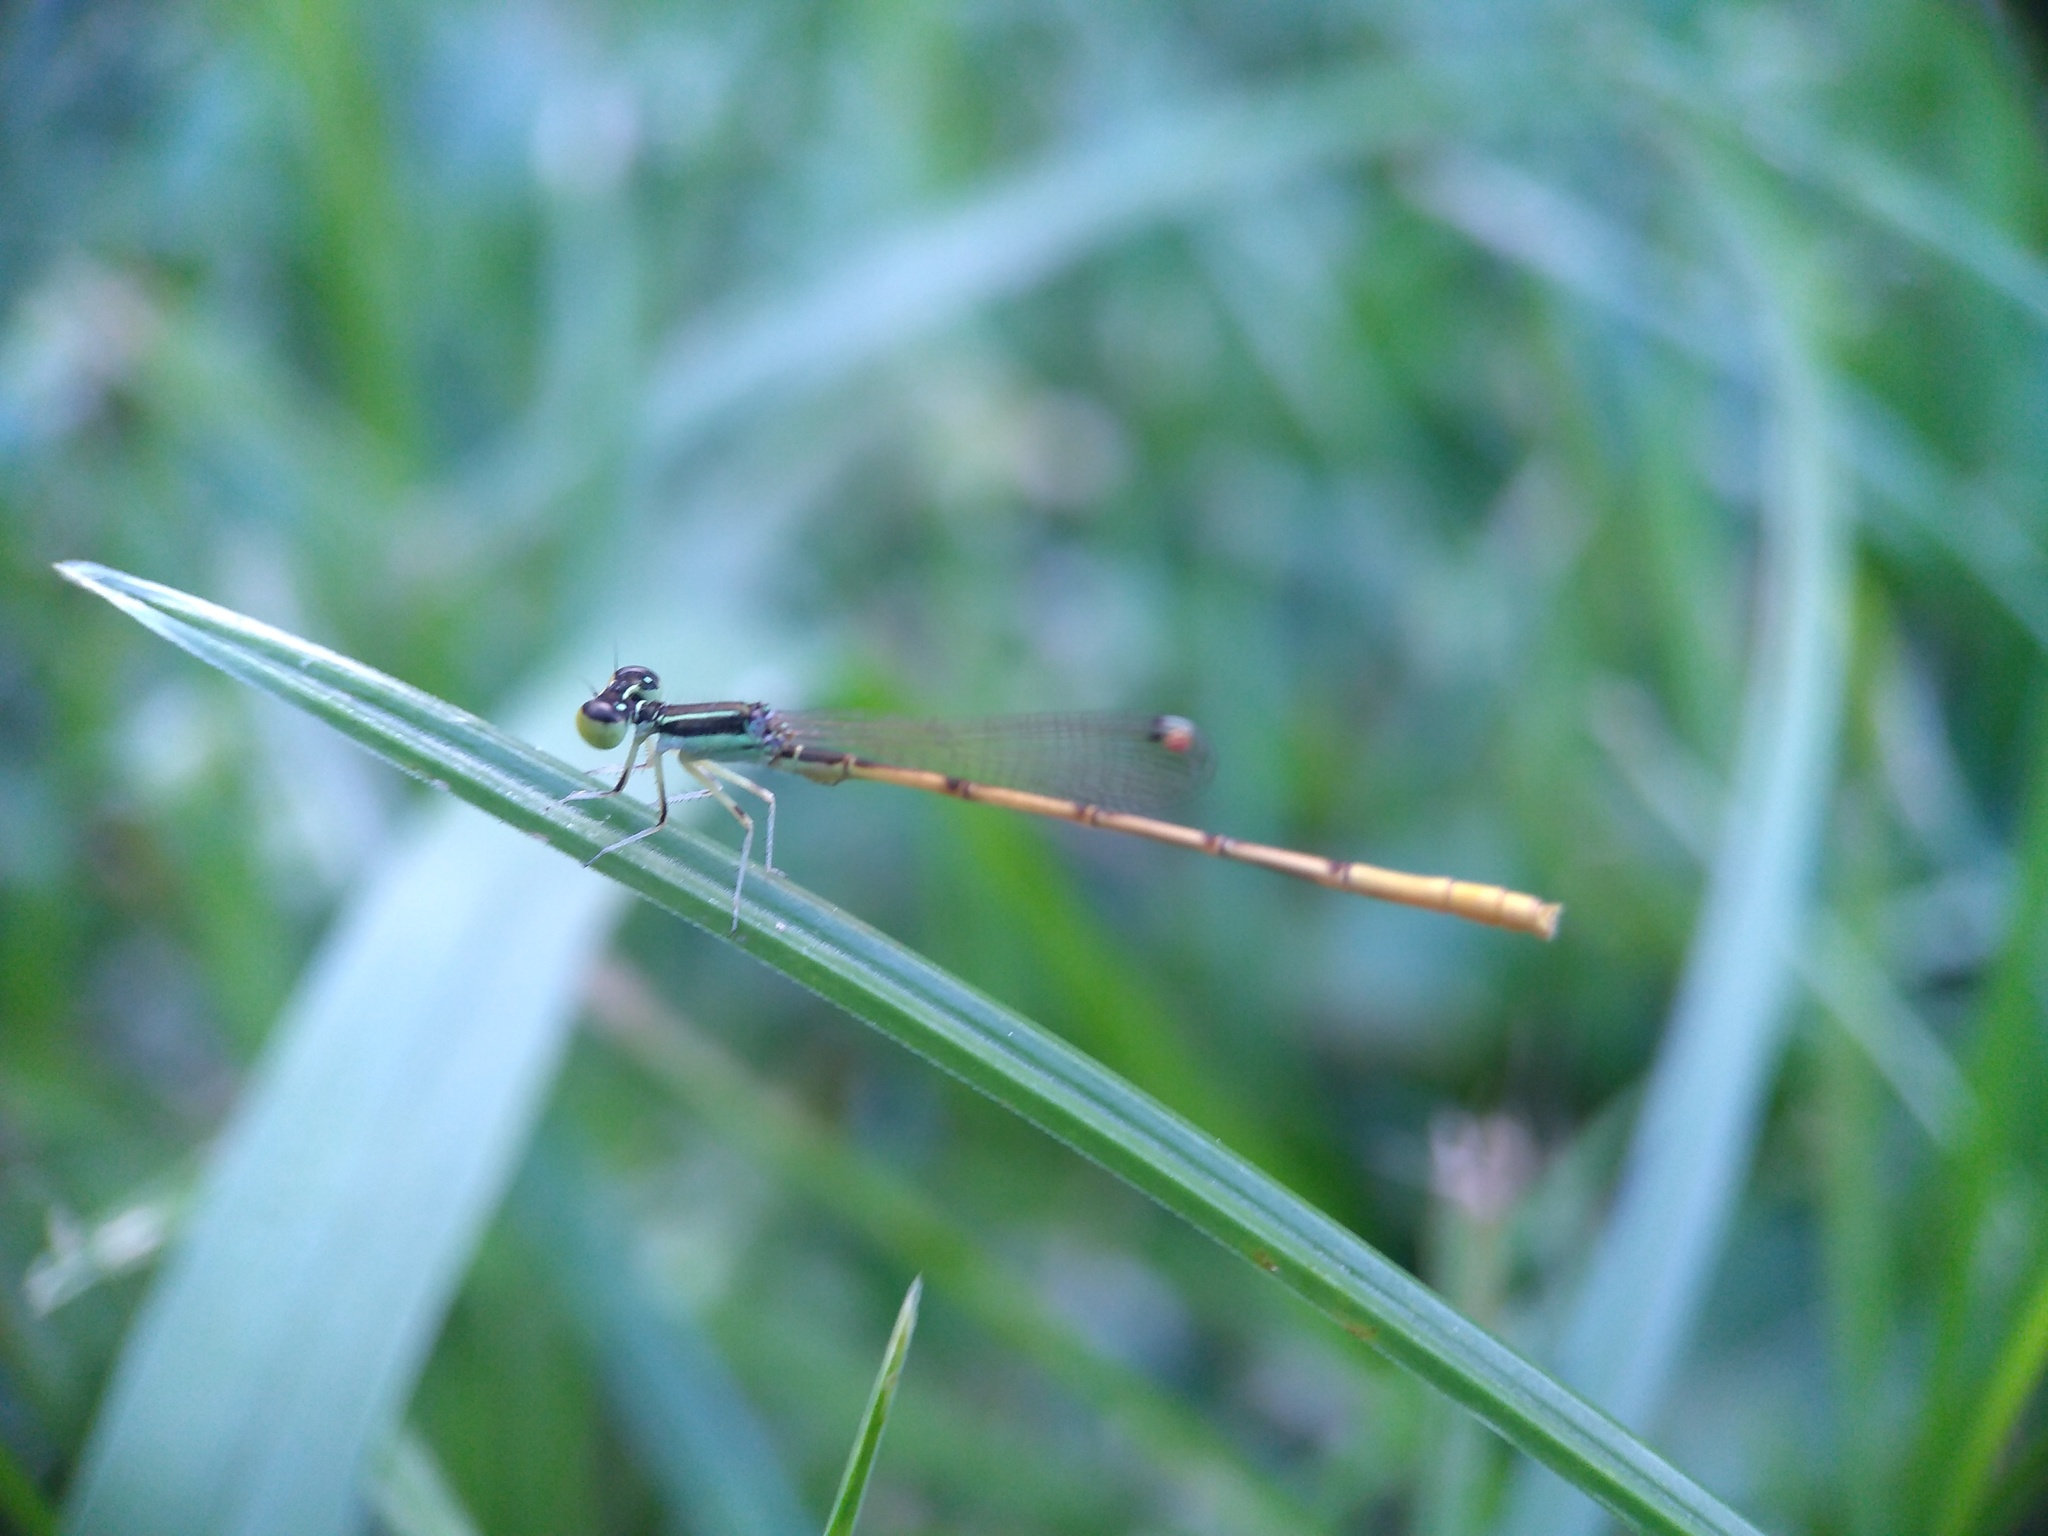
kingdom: Animalia
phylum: Arthropoda
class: Insecta
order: Odonata
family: Coenagrionidae
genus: Ischnura
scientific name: Ischnura hastata
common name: Citrine forktail
